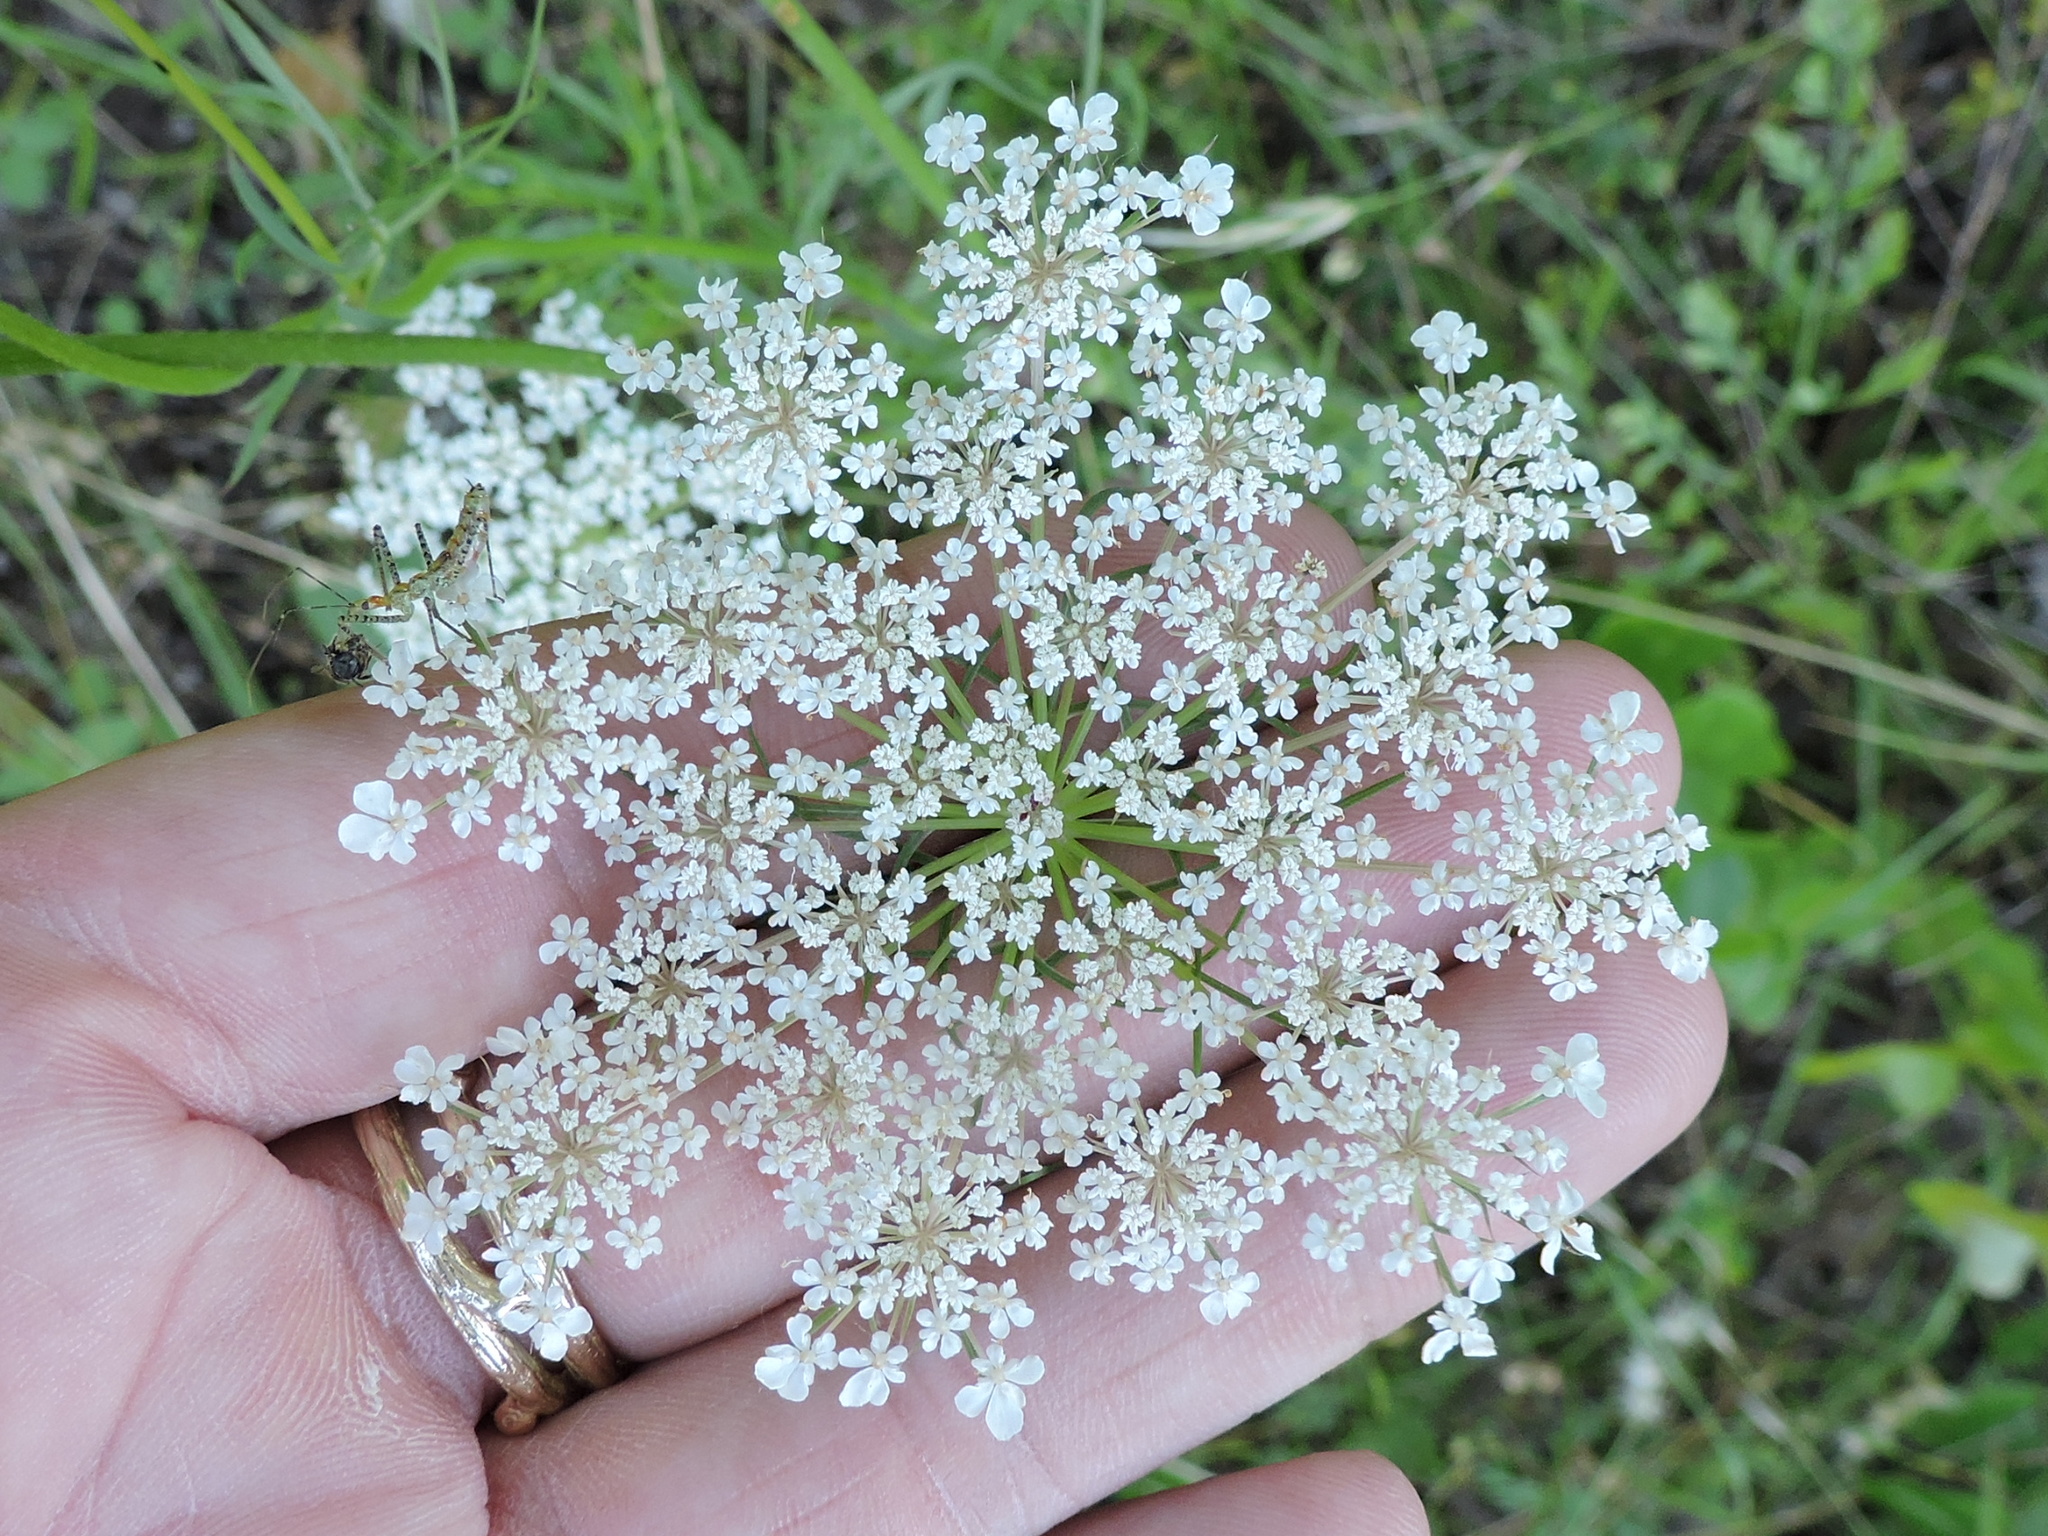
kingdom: Plantae
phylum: Tracheophyta
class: Magnoliopsida
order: Apiales
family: Apiaceae
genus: Daucus
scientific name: Daucus carota
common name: Wild carrot
